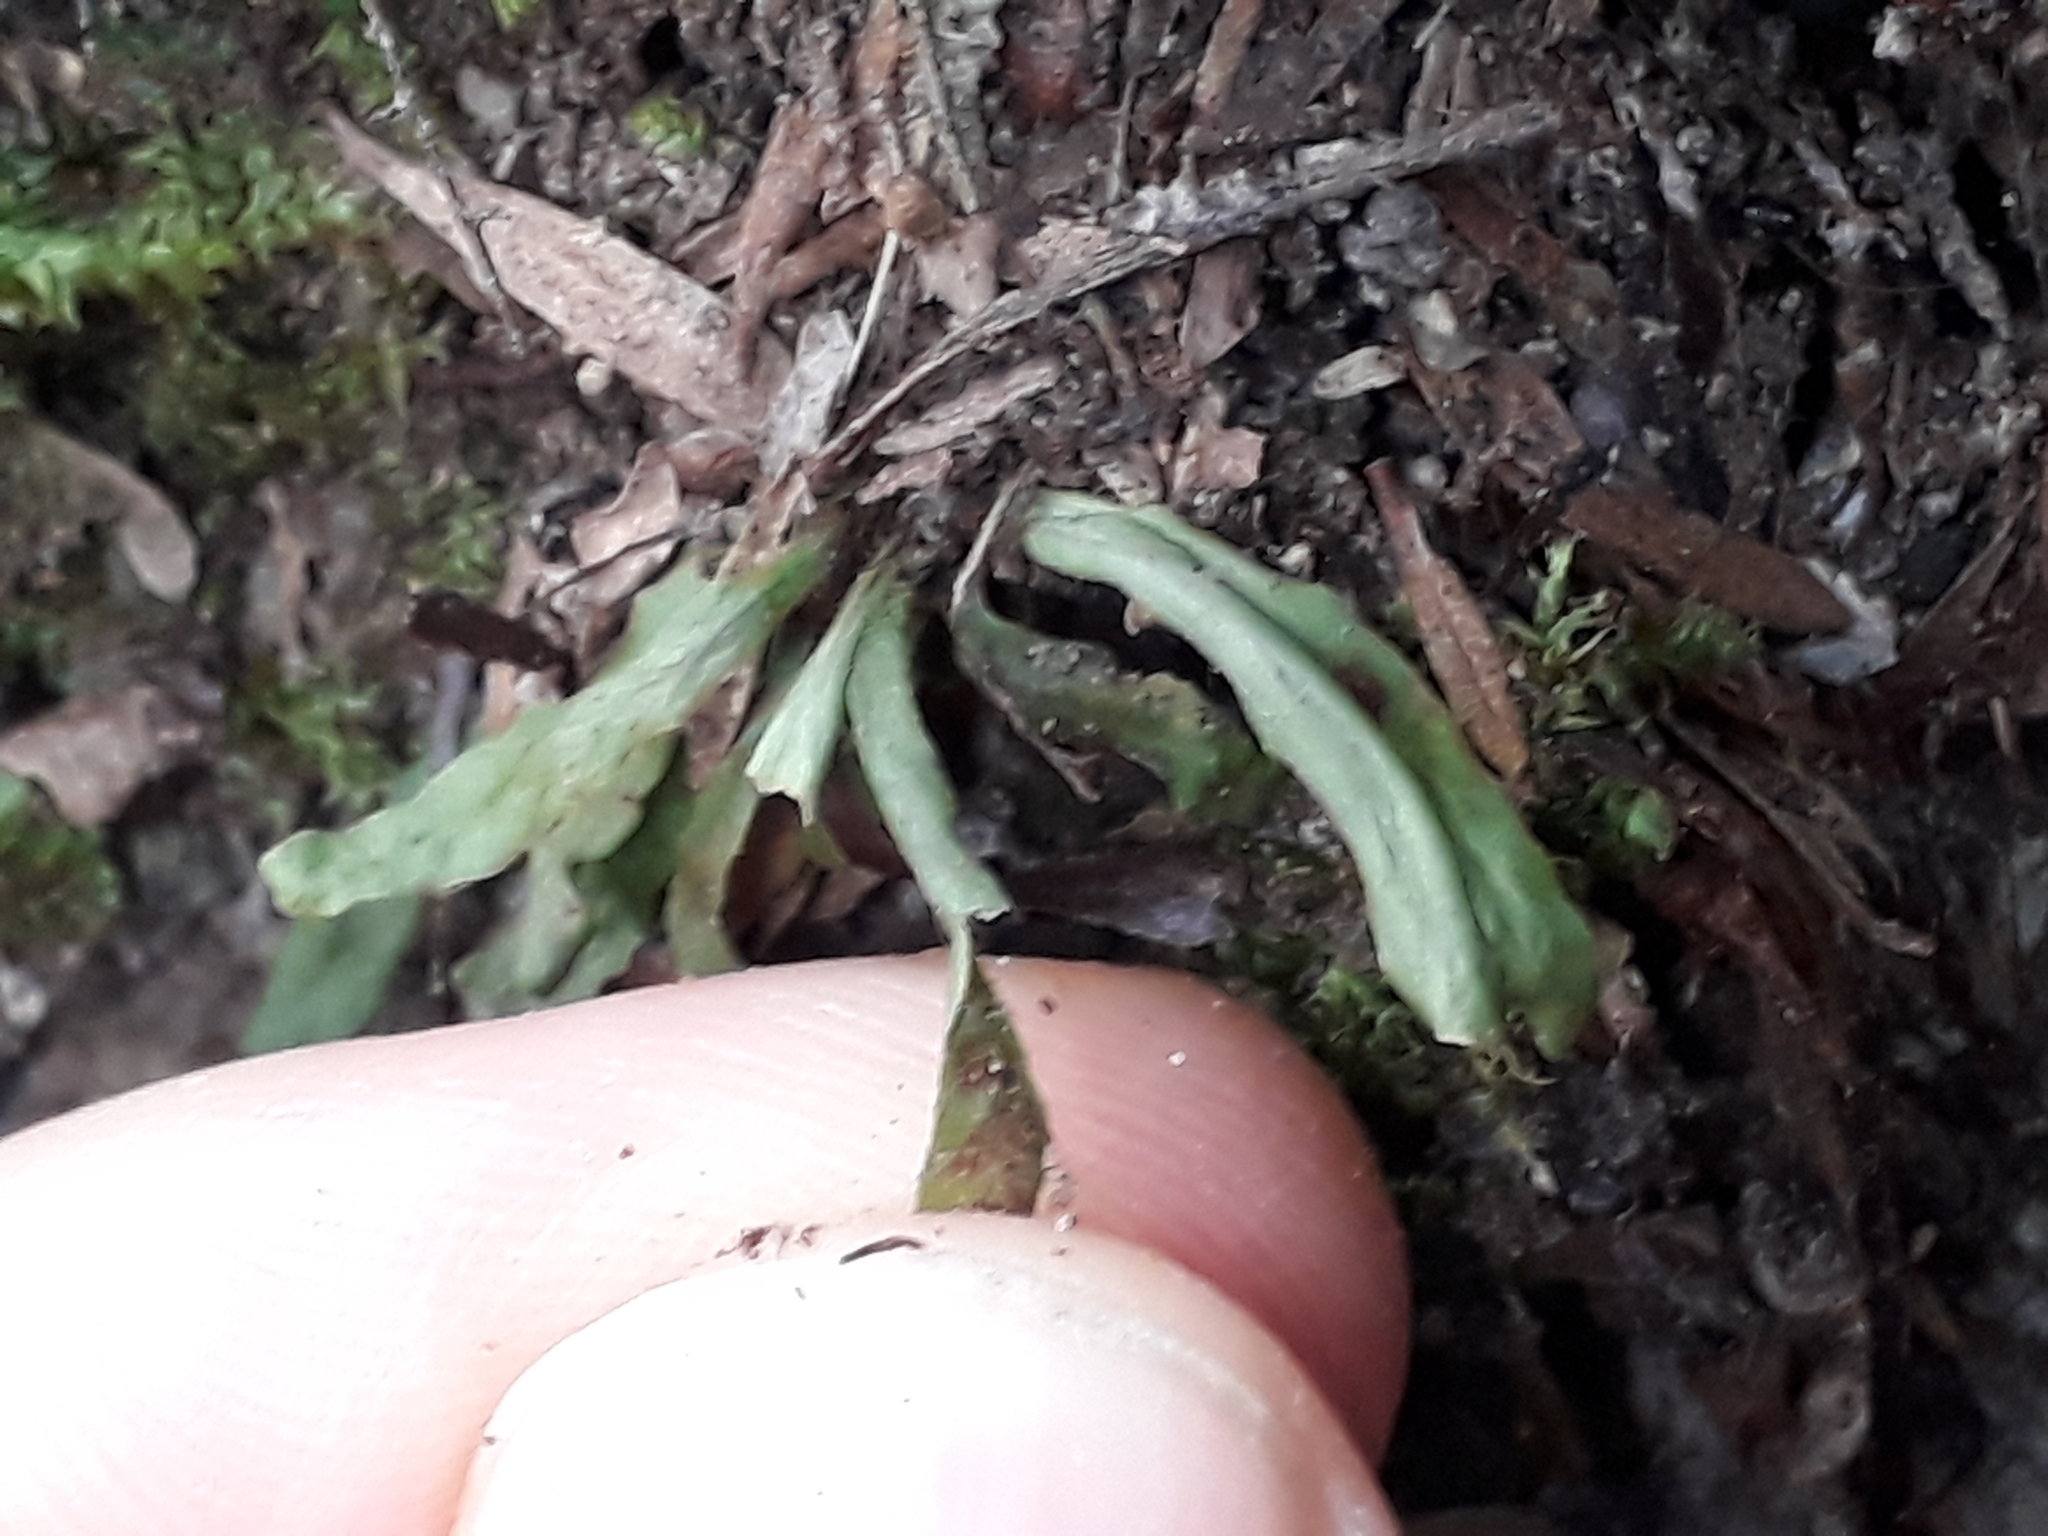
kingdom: Plantae
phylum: Tracheophyta
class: Polypodiopsida
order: Polypodiales
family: Polypodiaceae
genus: Notogrammitis
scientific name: Notogrammitis ciliata
